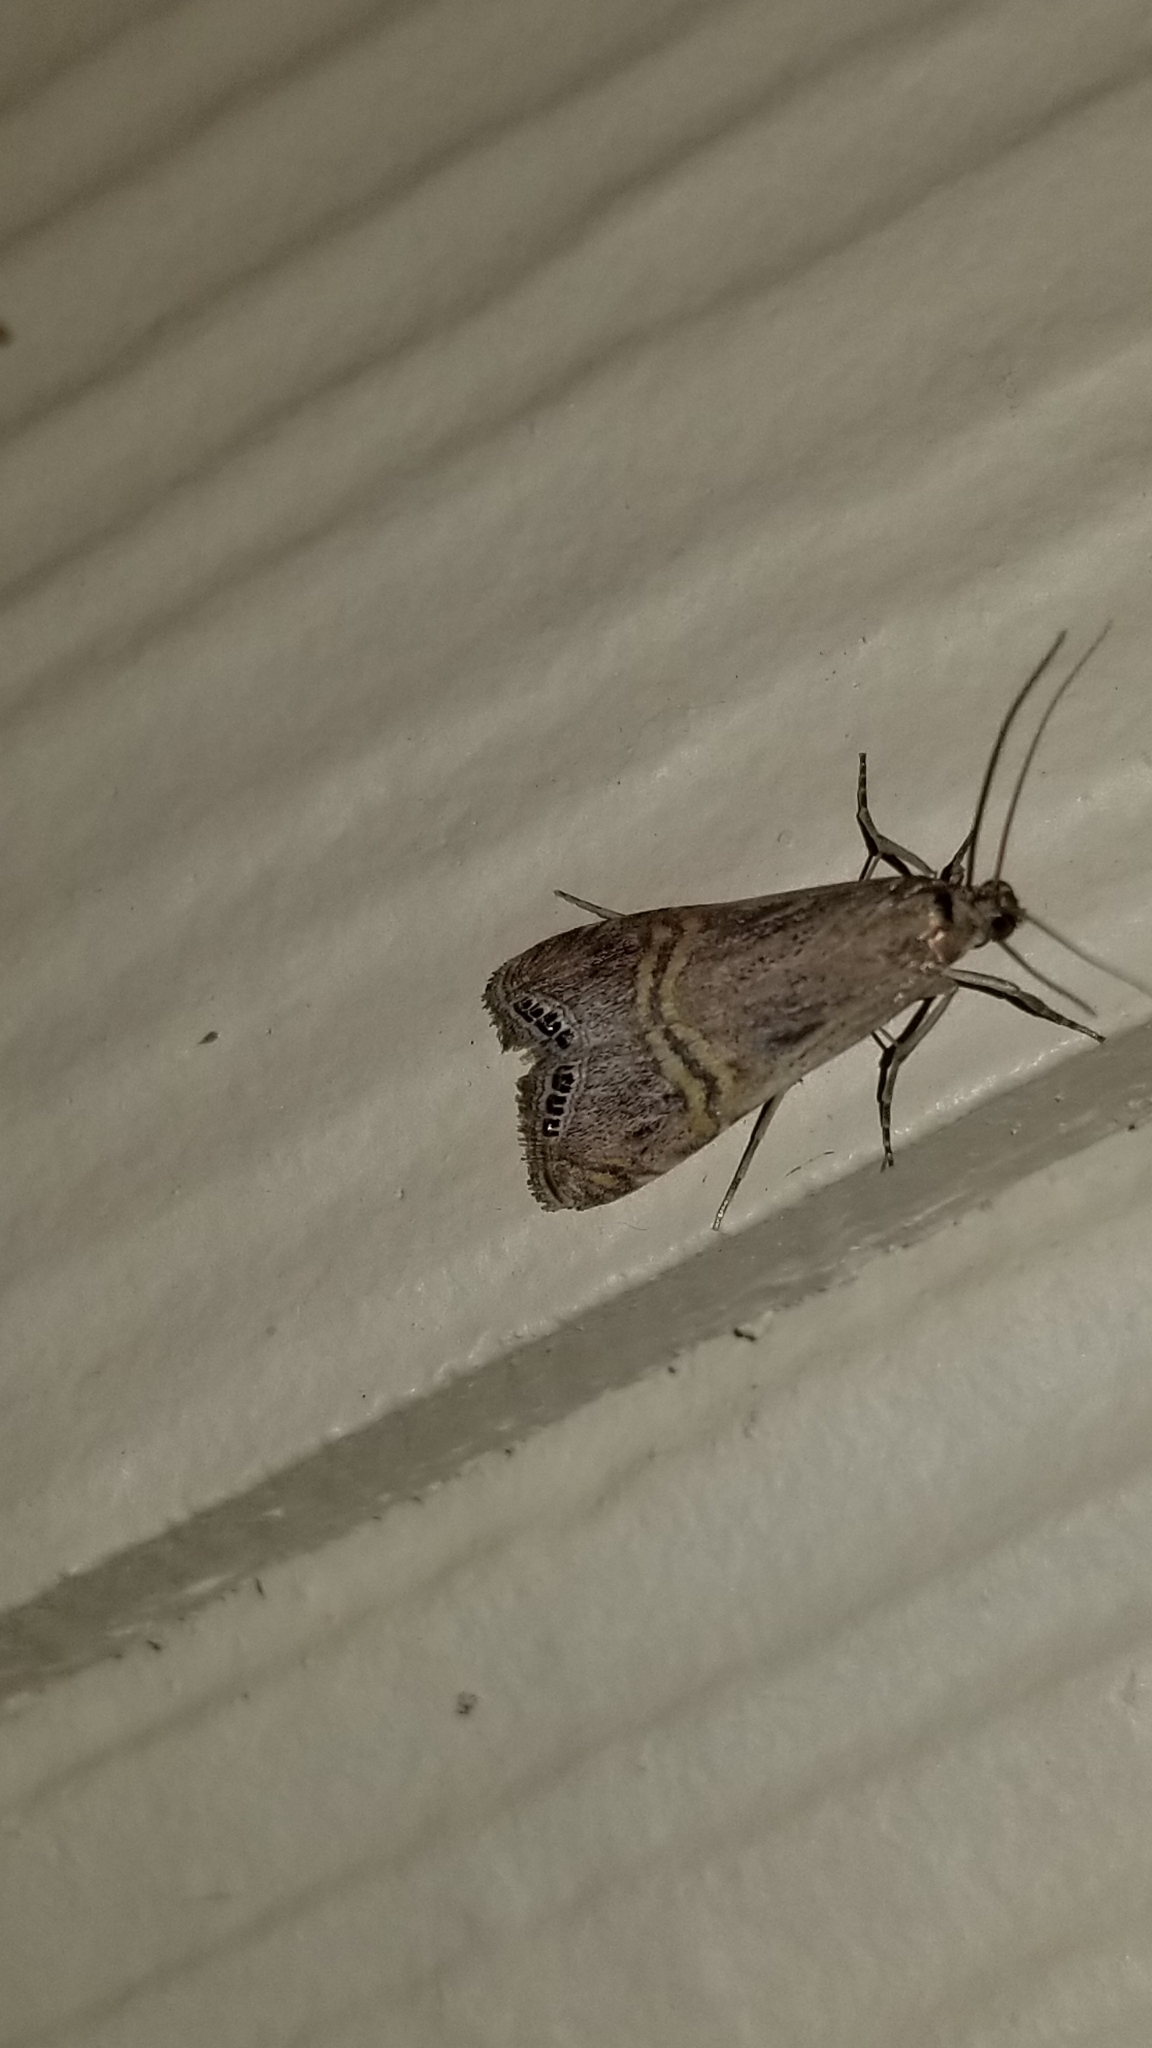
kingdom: Animalia
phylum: Arthropoda
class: Insecta
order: Lepidoptera
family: Crambidae
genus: Euchromius
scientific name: Euchromius ocellea
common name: Necklace veneer moth
